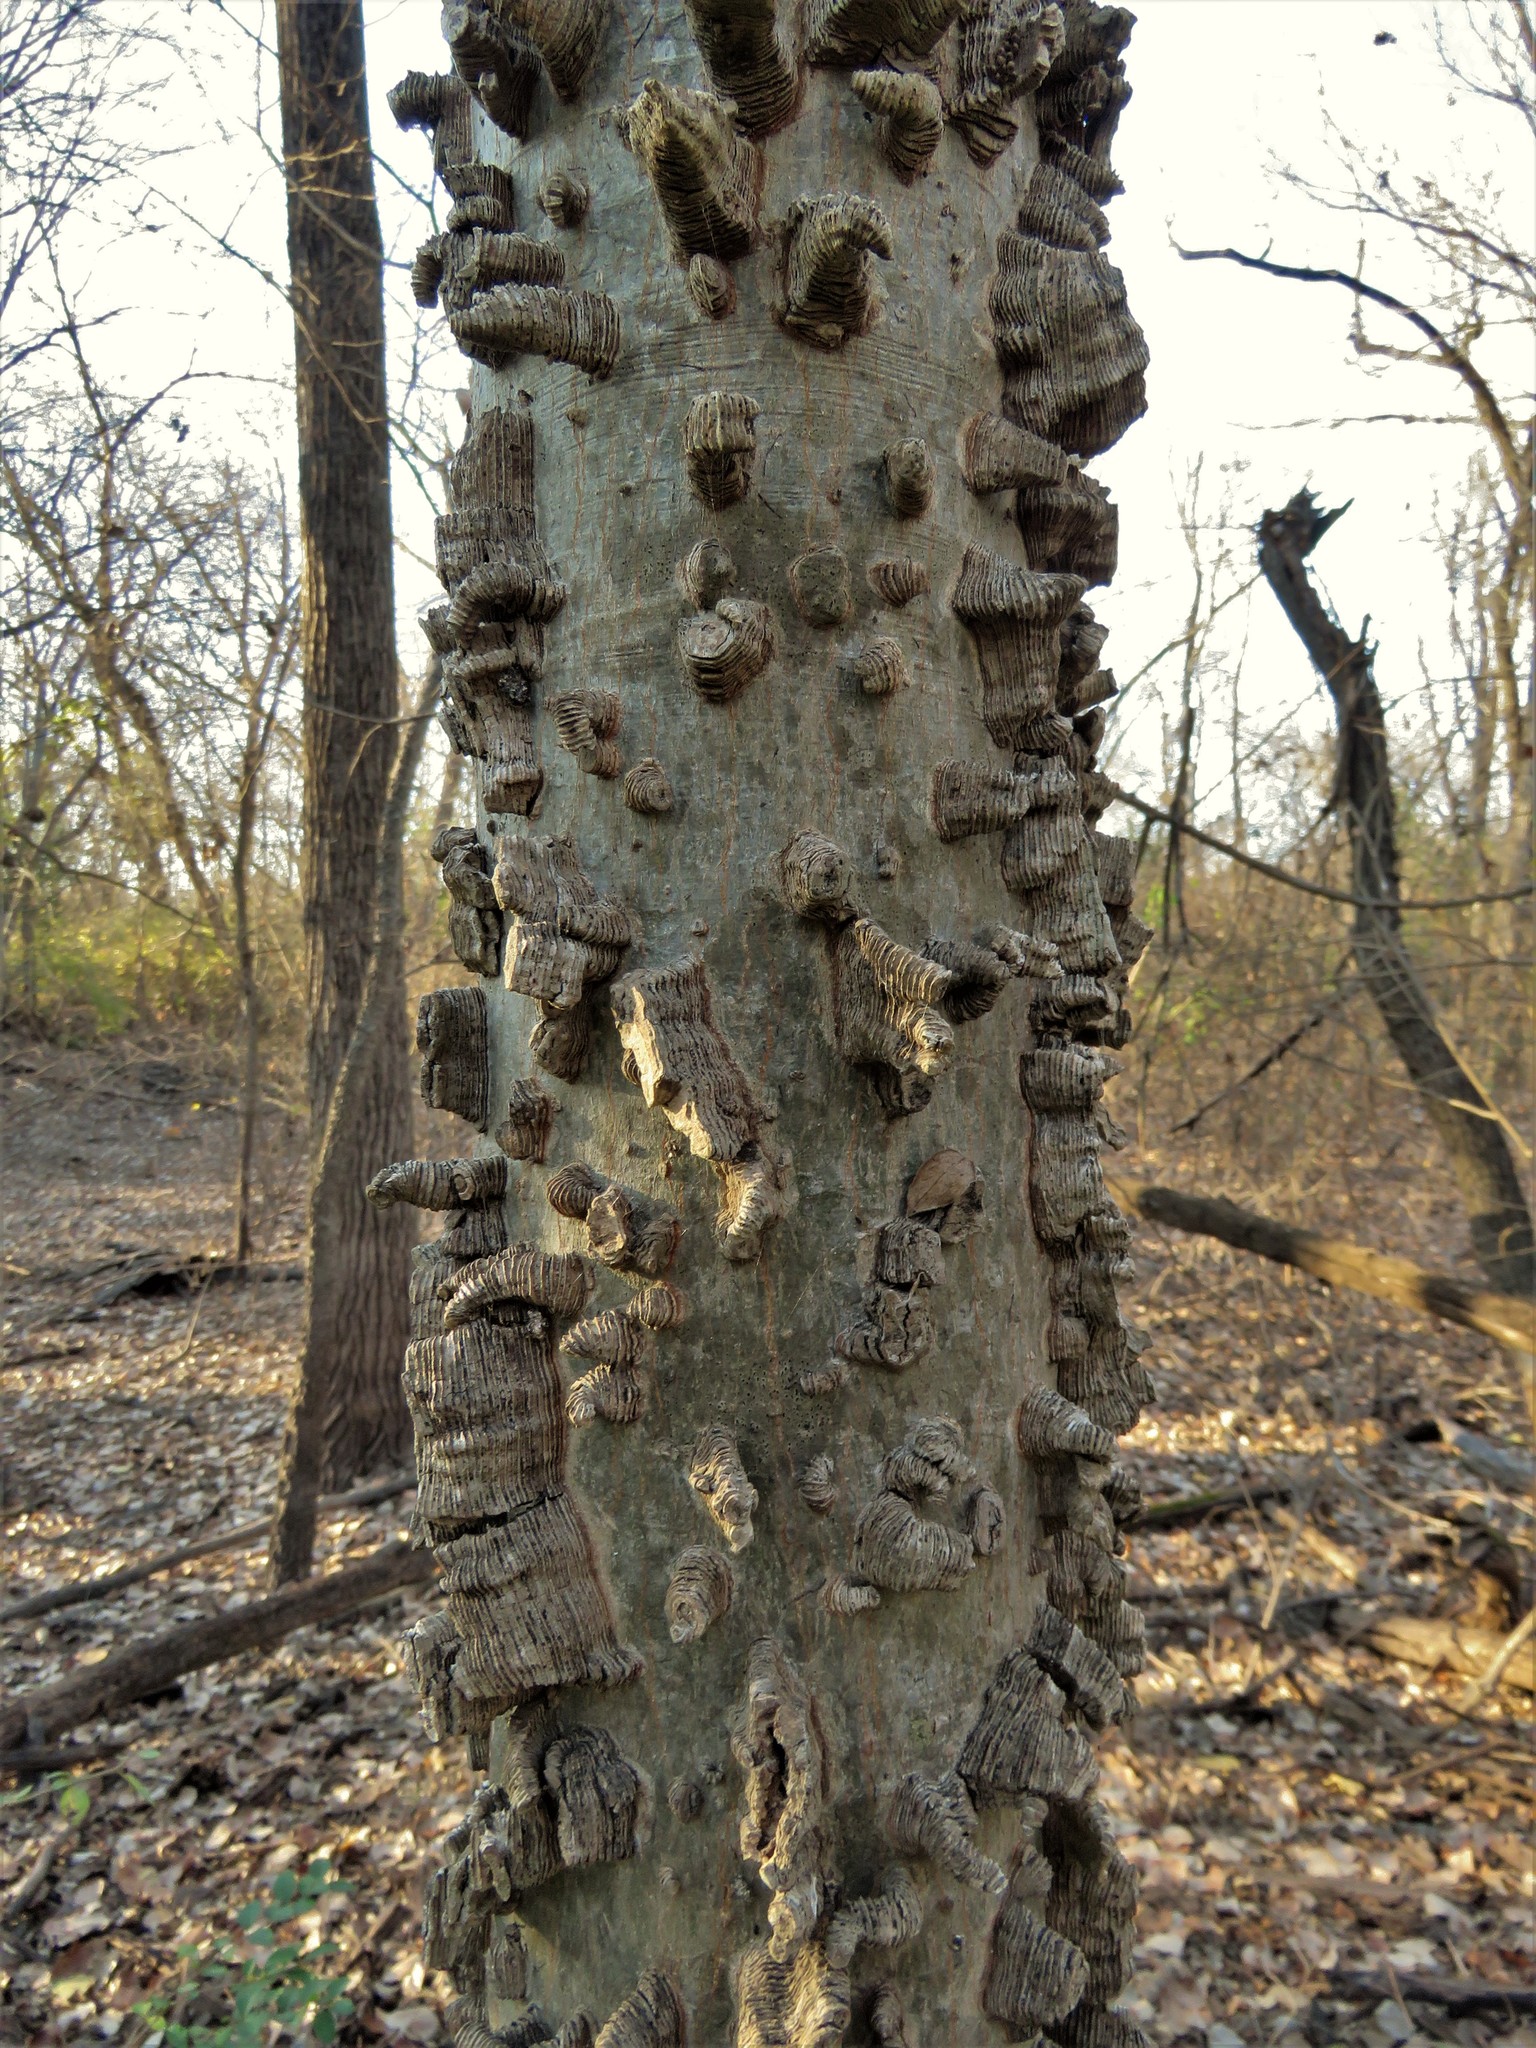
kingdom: Plantae
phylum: Tracheophyta
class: Magnoliopsida
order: Rosales
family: Cannabaceae
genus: Celtis
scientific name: Celtis laevigata
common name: Sugarberry
